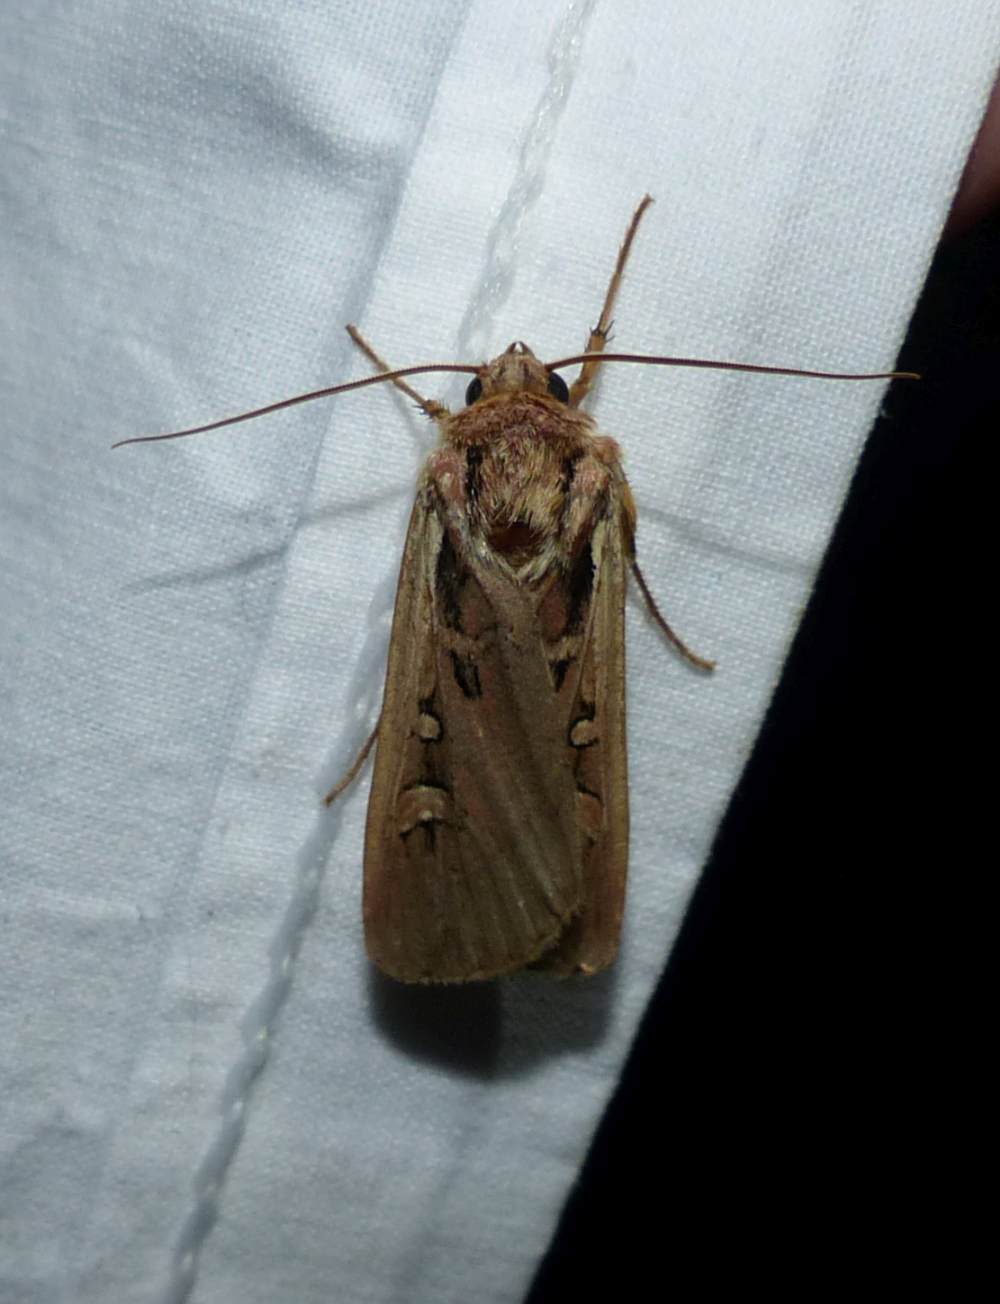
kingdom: Animalia
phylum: Arthropoda
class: Insecta
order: Lepidoptera
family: Noctuidae
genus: Striacosta
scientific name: Striacosta albicosta
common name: Western bean cutworm moth
